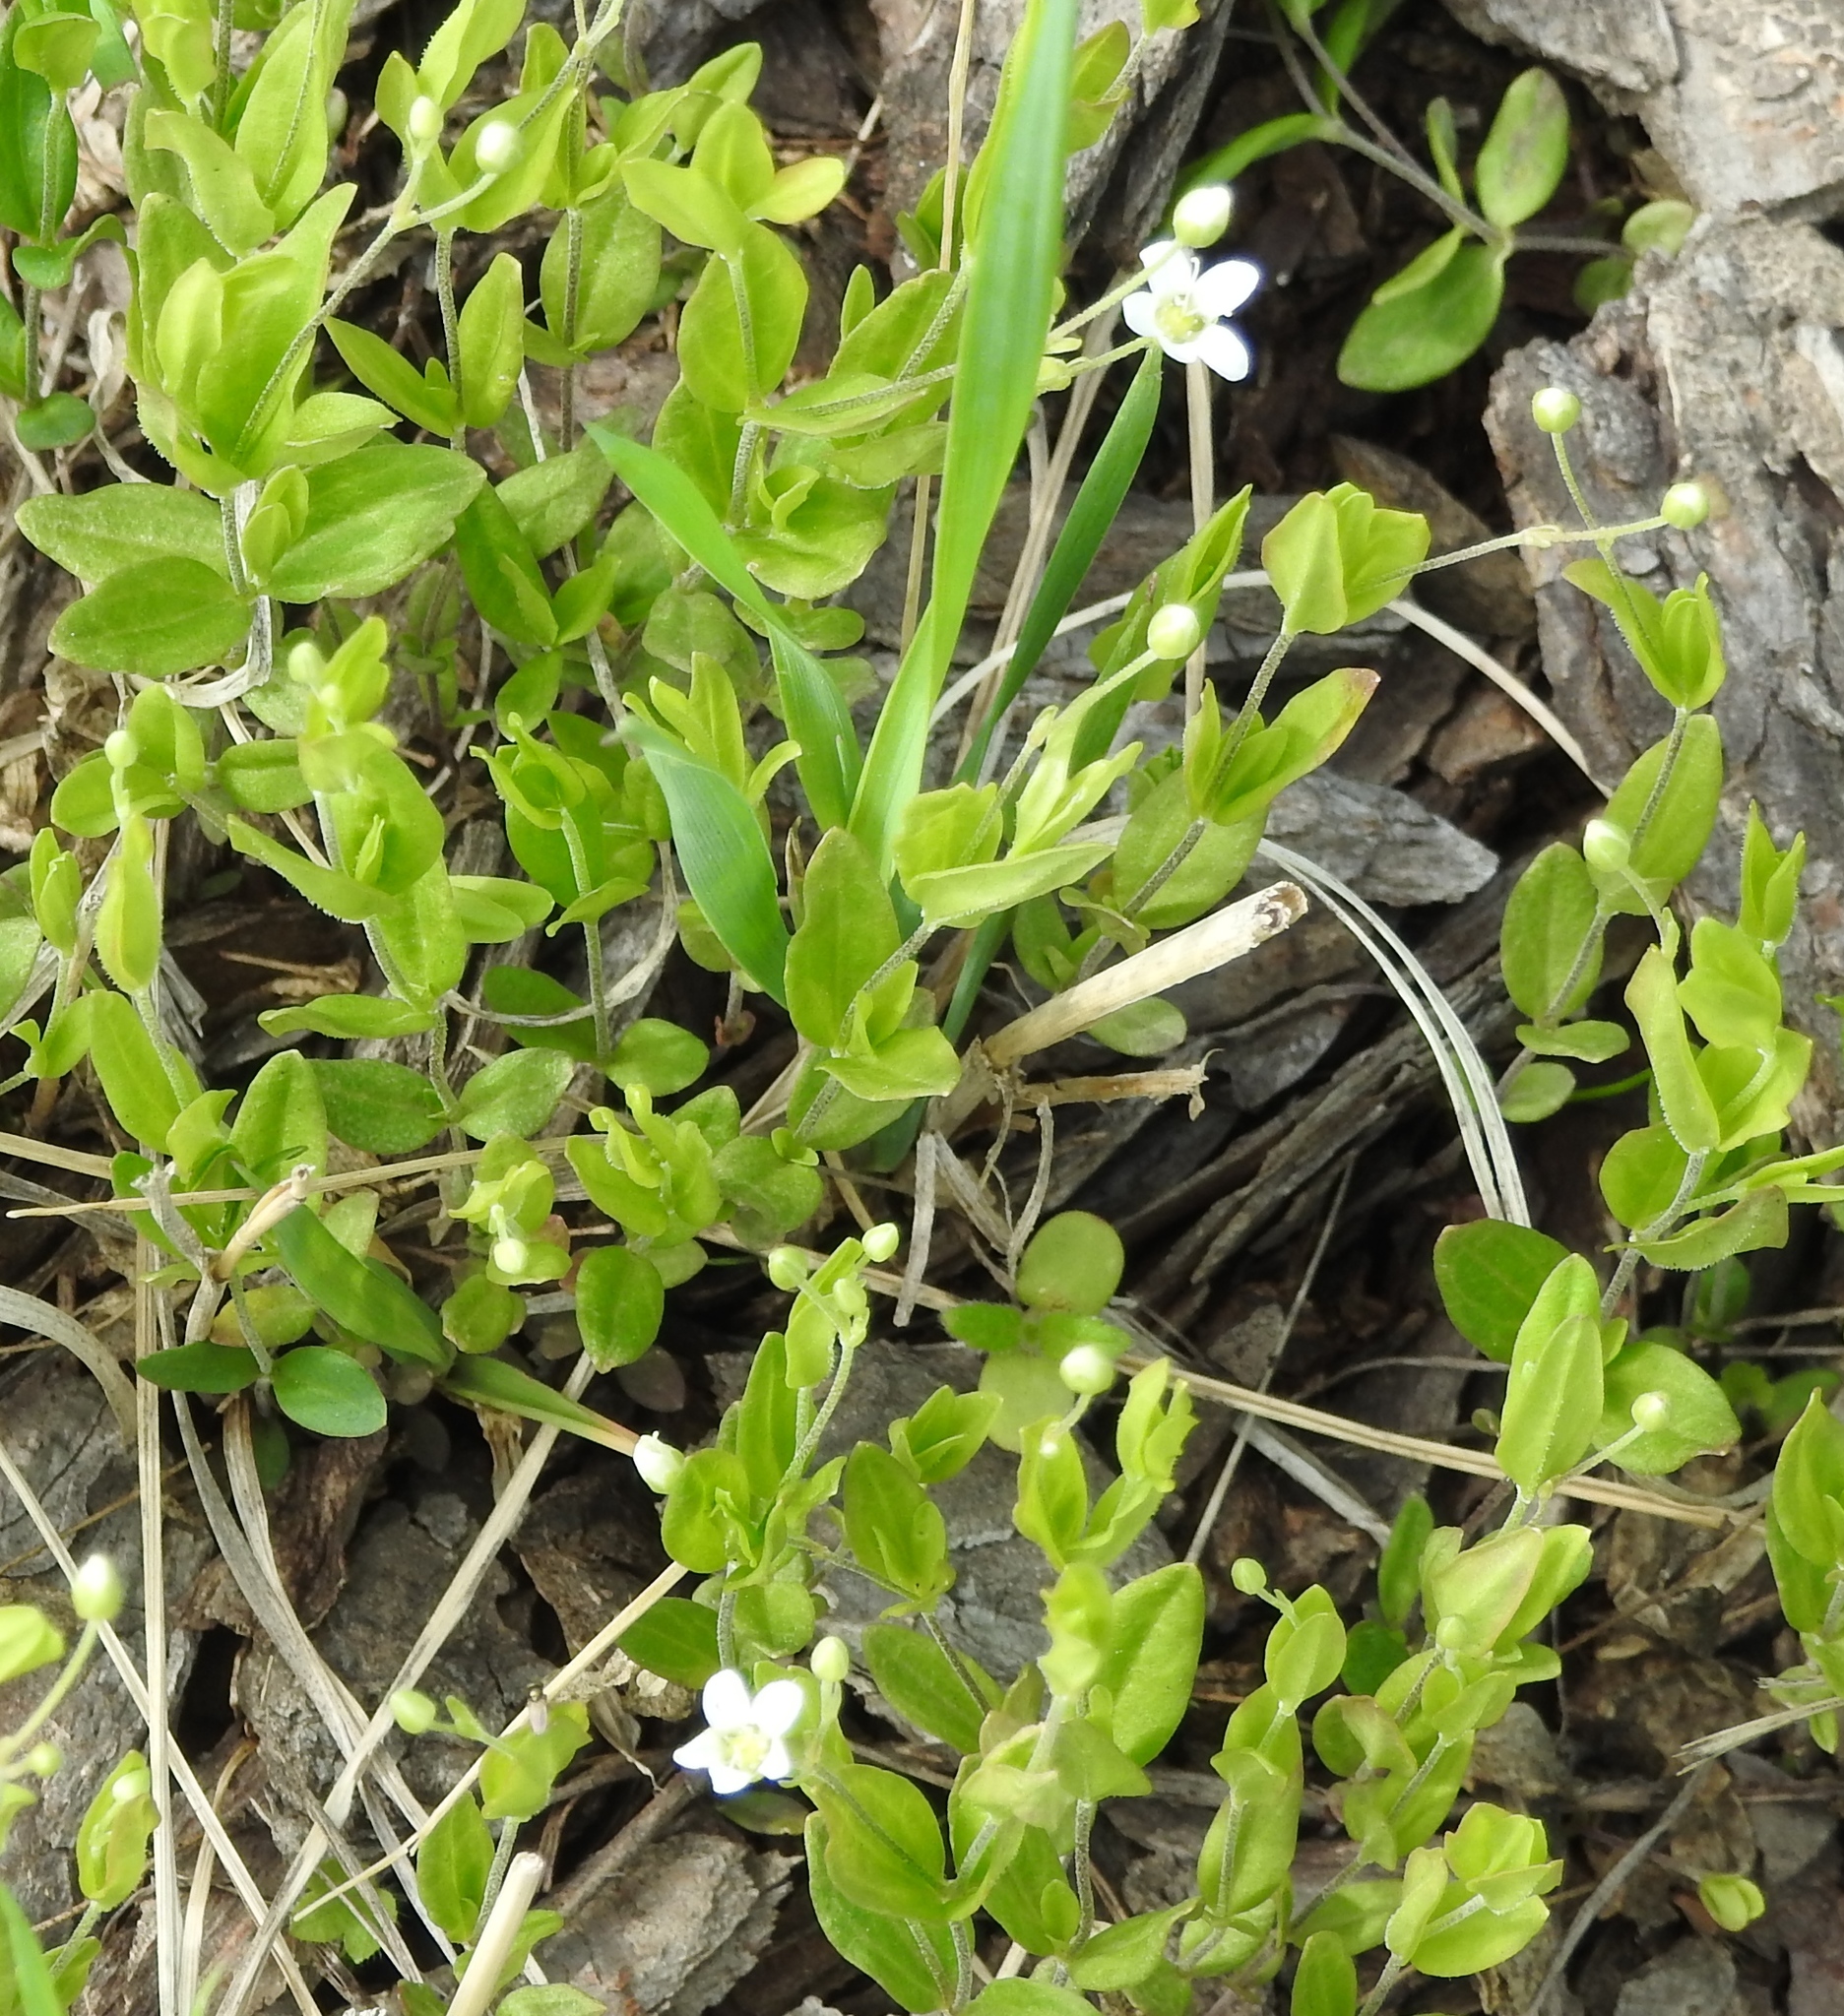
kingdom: Plantae
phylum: Tracheophyta
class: Magnoliopsida
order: Caryophyllales
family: Caryophyllaceae
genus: Moehringia
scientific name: Moehringia lateriflora
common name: Blunt-leaved sandwort
